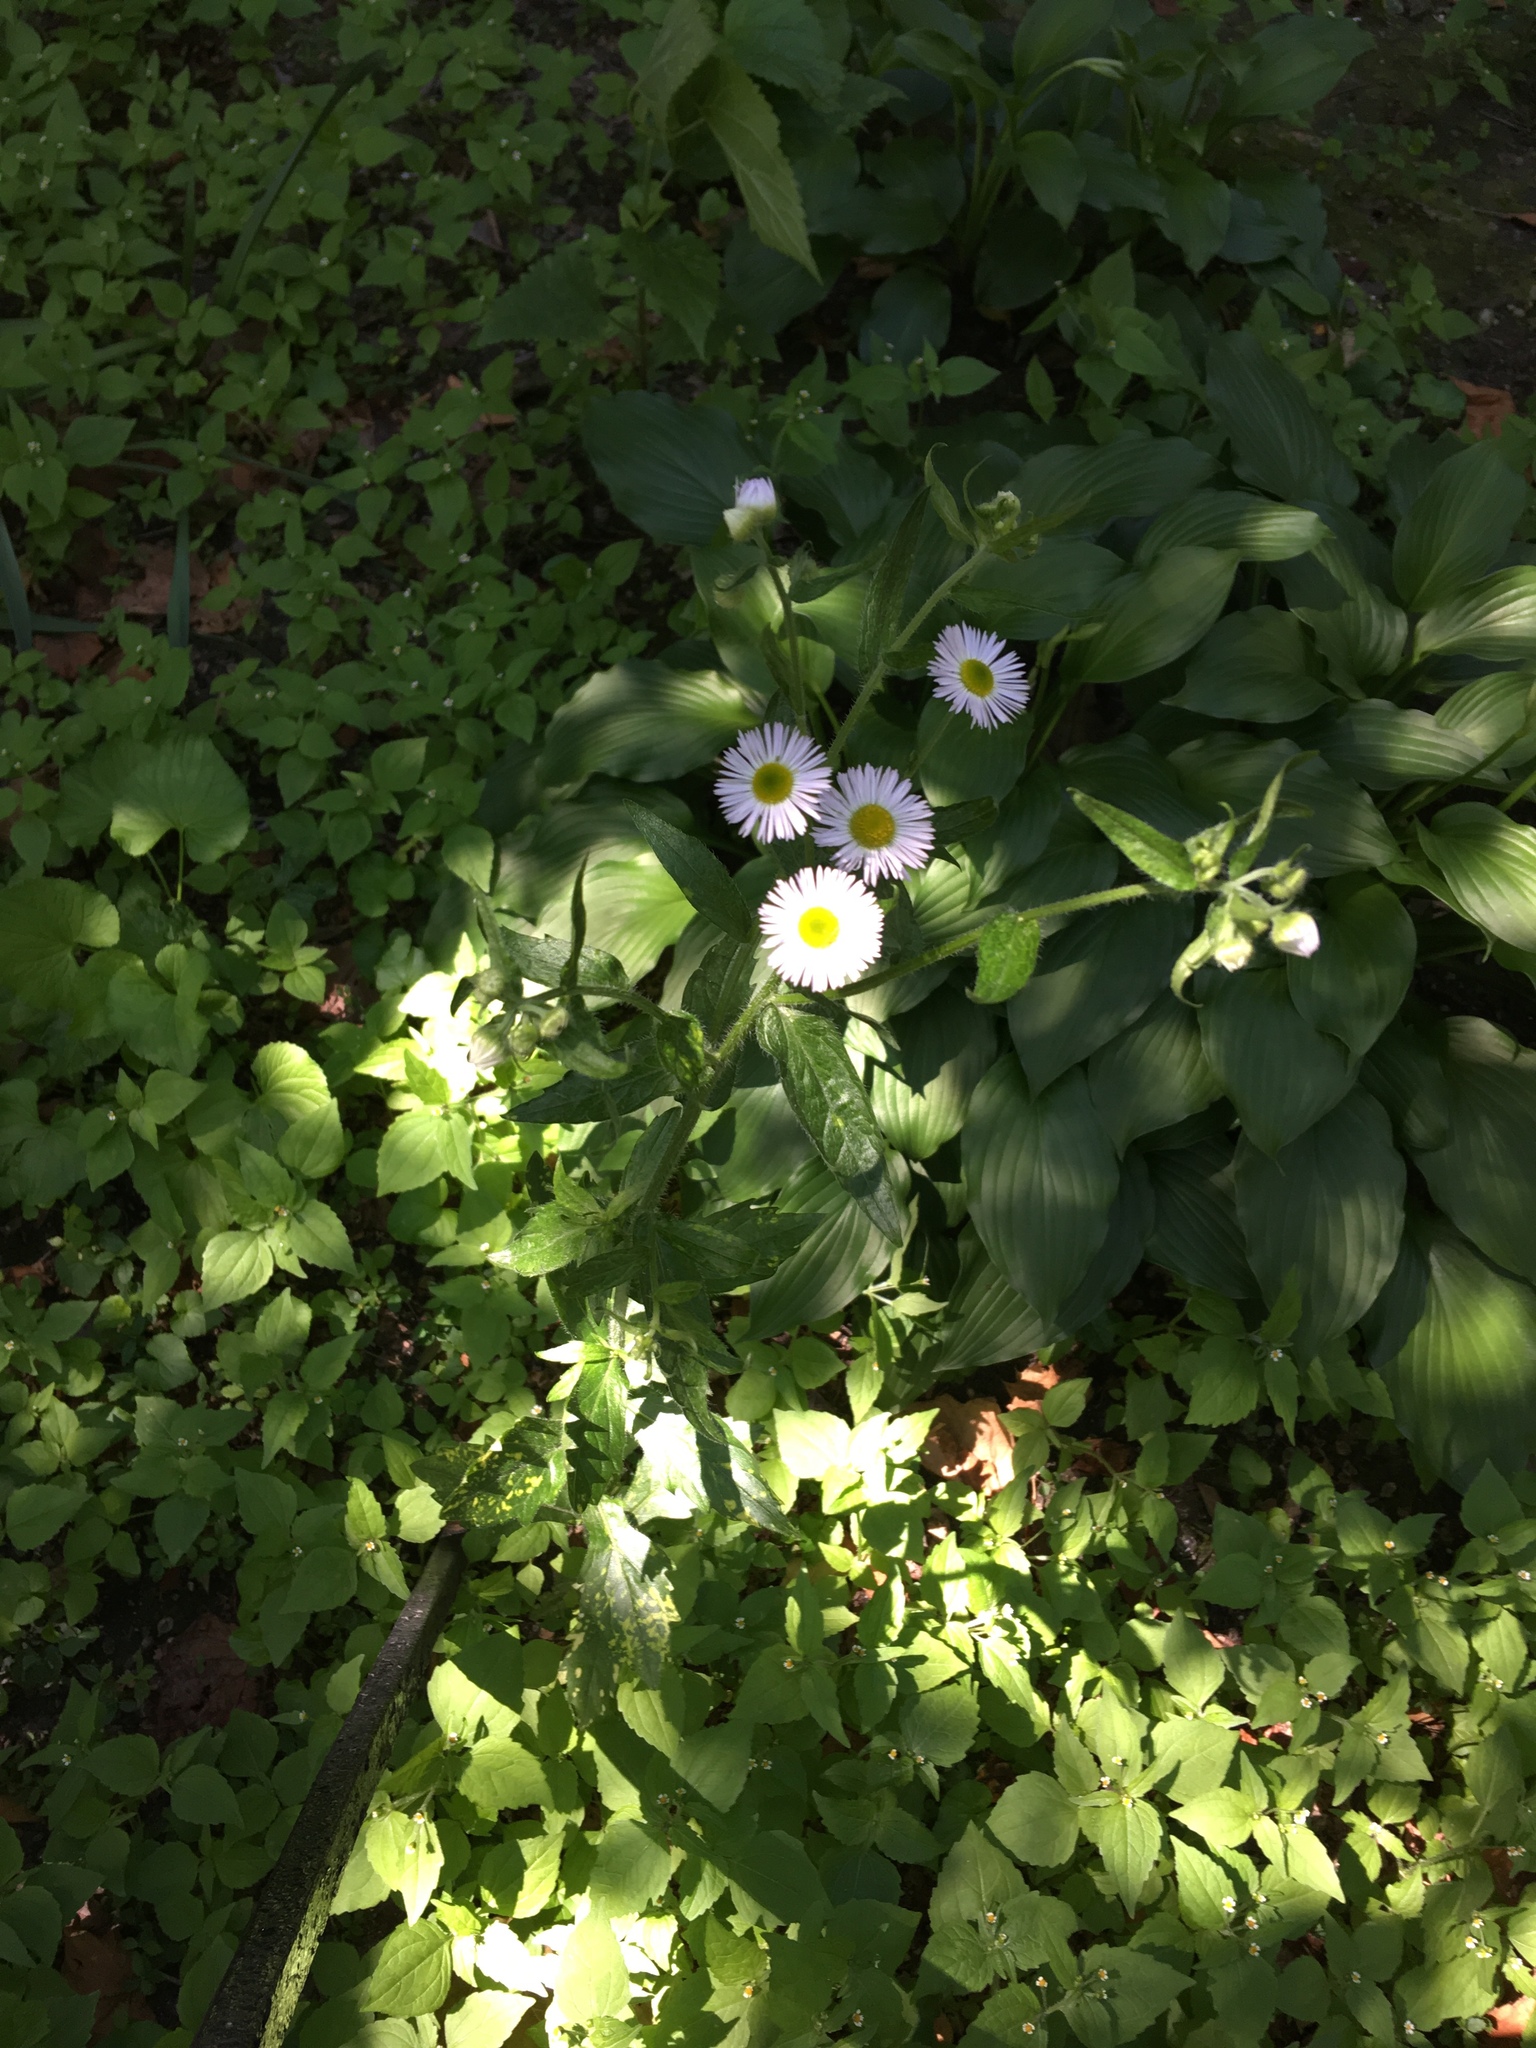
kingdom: Plantae
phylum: Tracheophyta
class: Magnoliopsida
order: Asterales
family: Asteraceae
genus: Erigeron
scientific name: Erigeron annuus
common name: Tall fleabane
